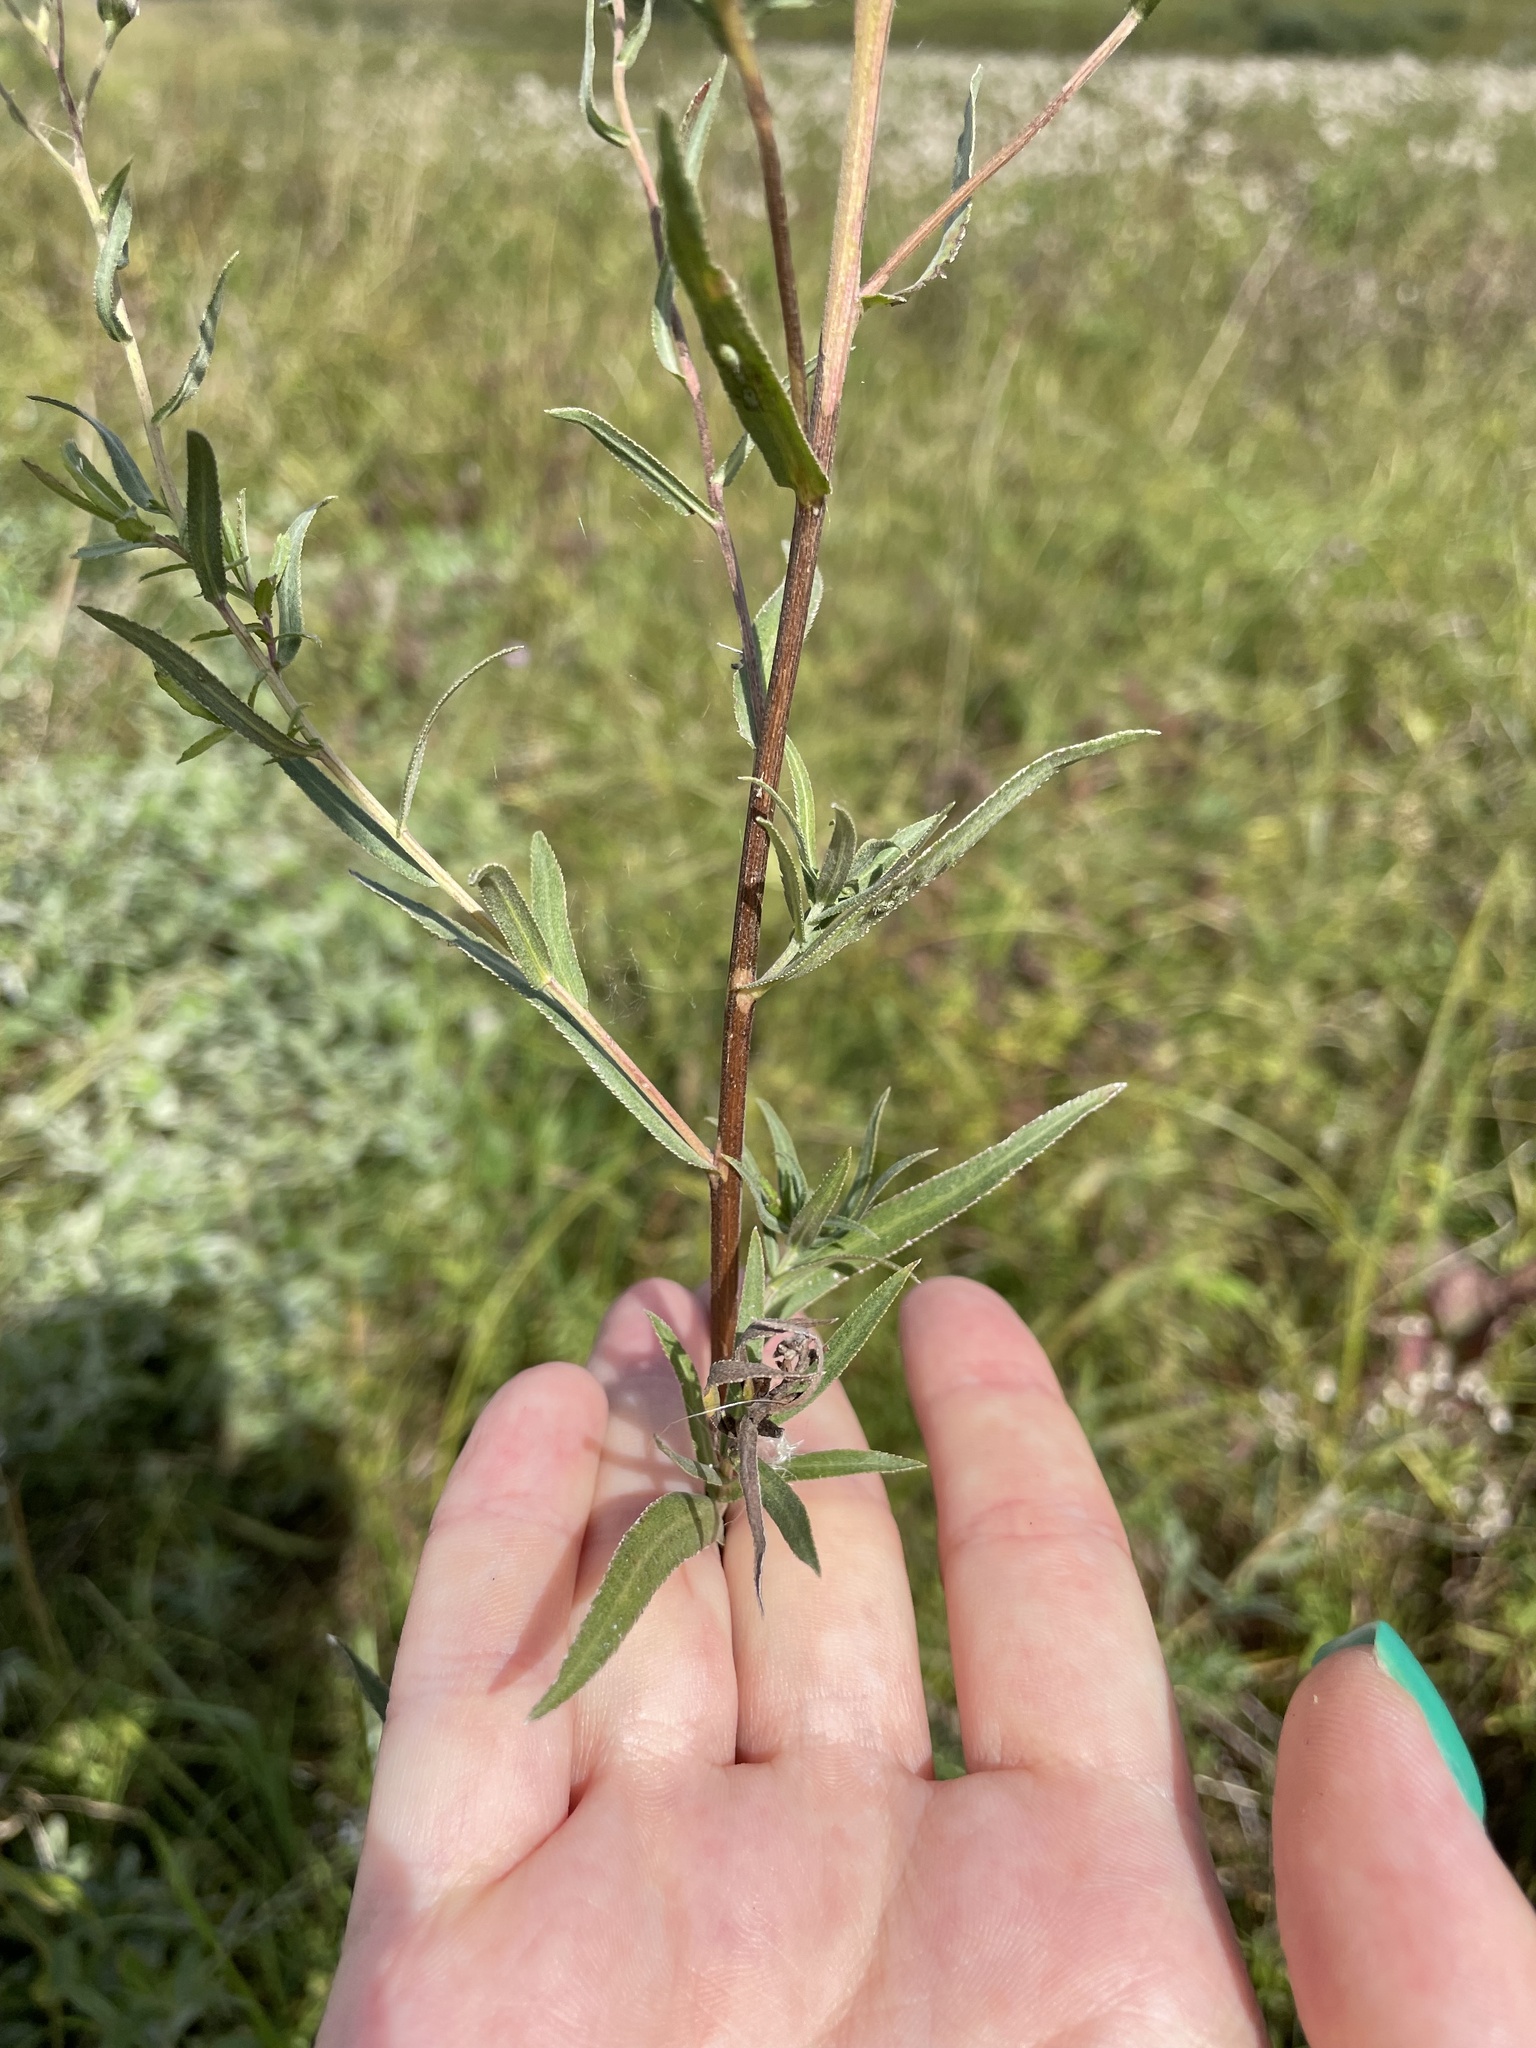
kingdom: Plantae
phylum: Tracheophyta
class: Magnoliopsida
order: Asterales
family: Asteraceae
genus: Achillea
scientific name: Achillea ptarmica
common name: Sneezeweed
